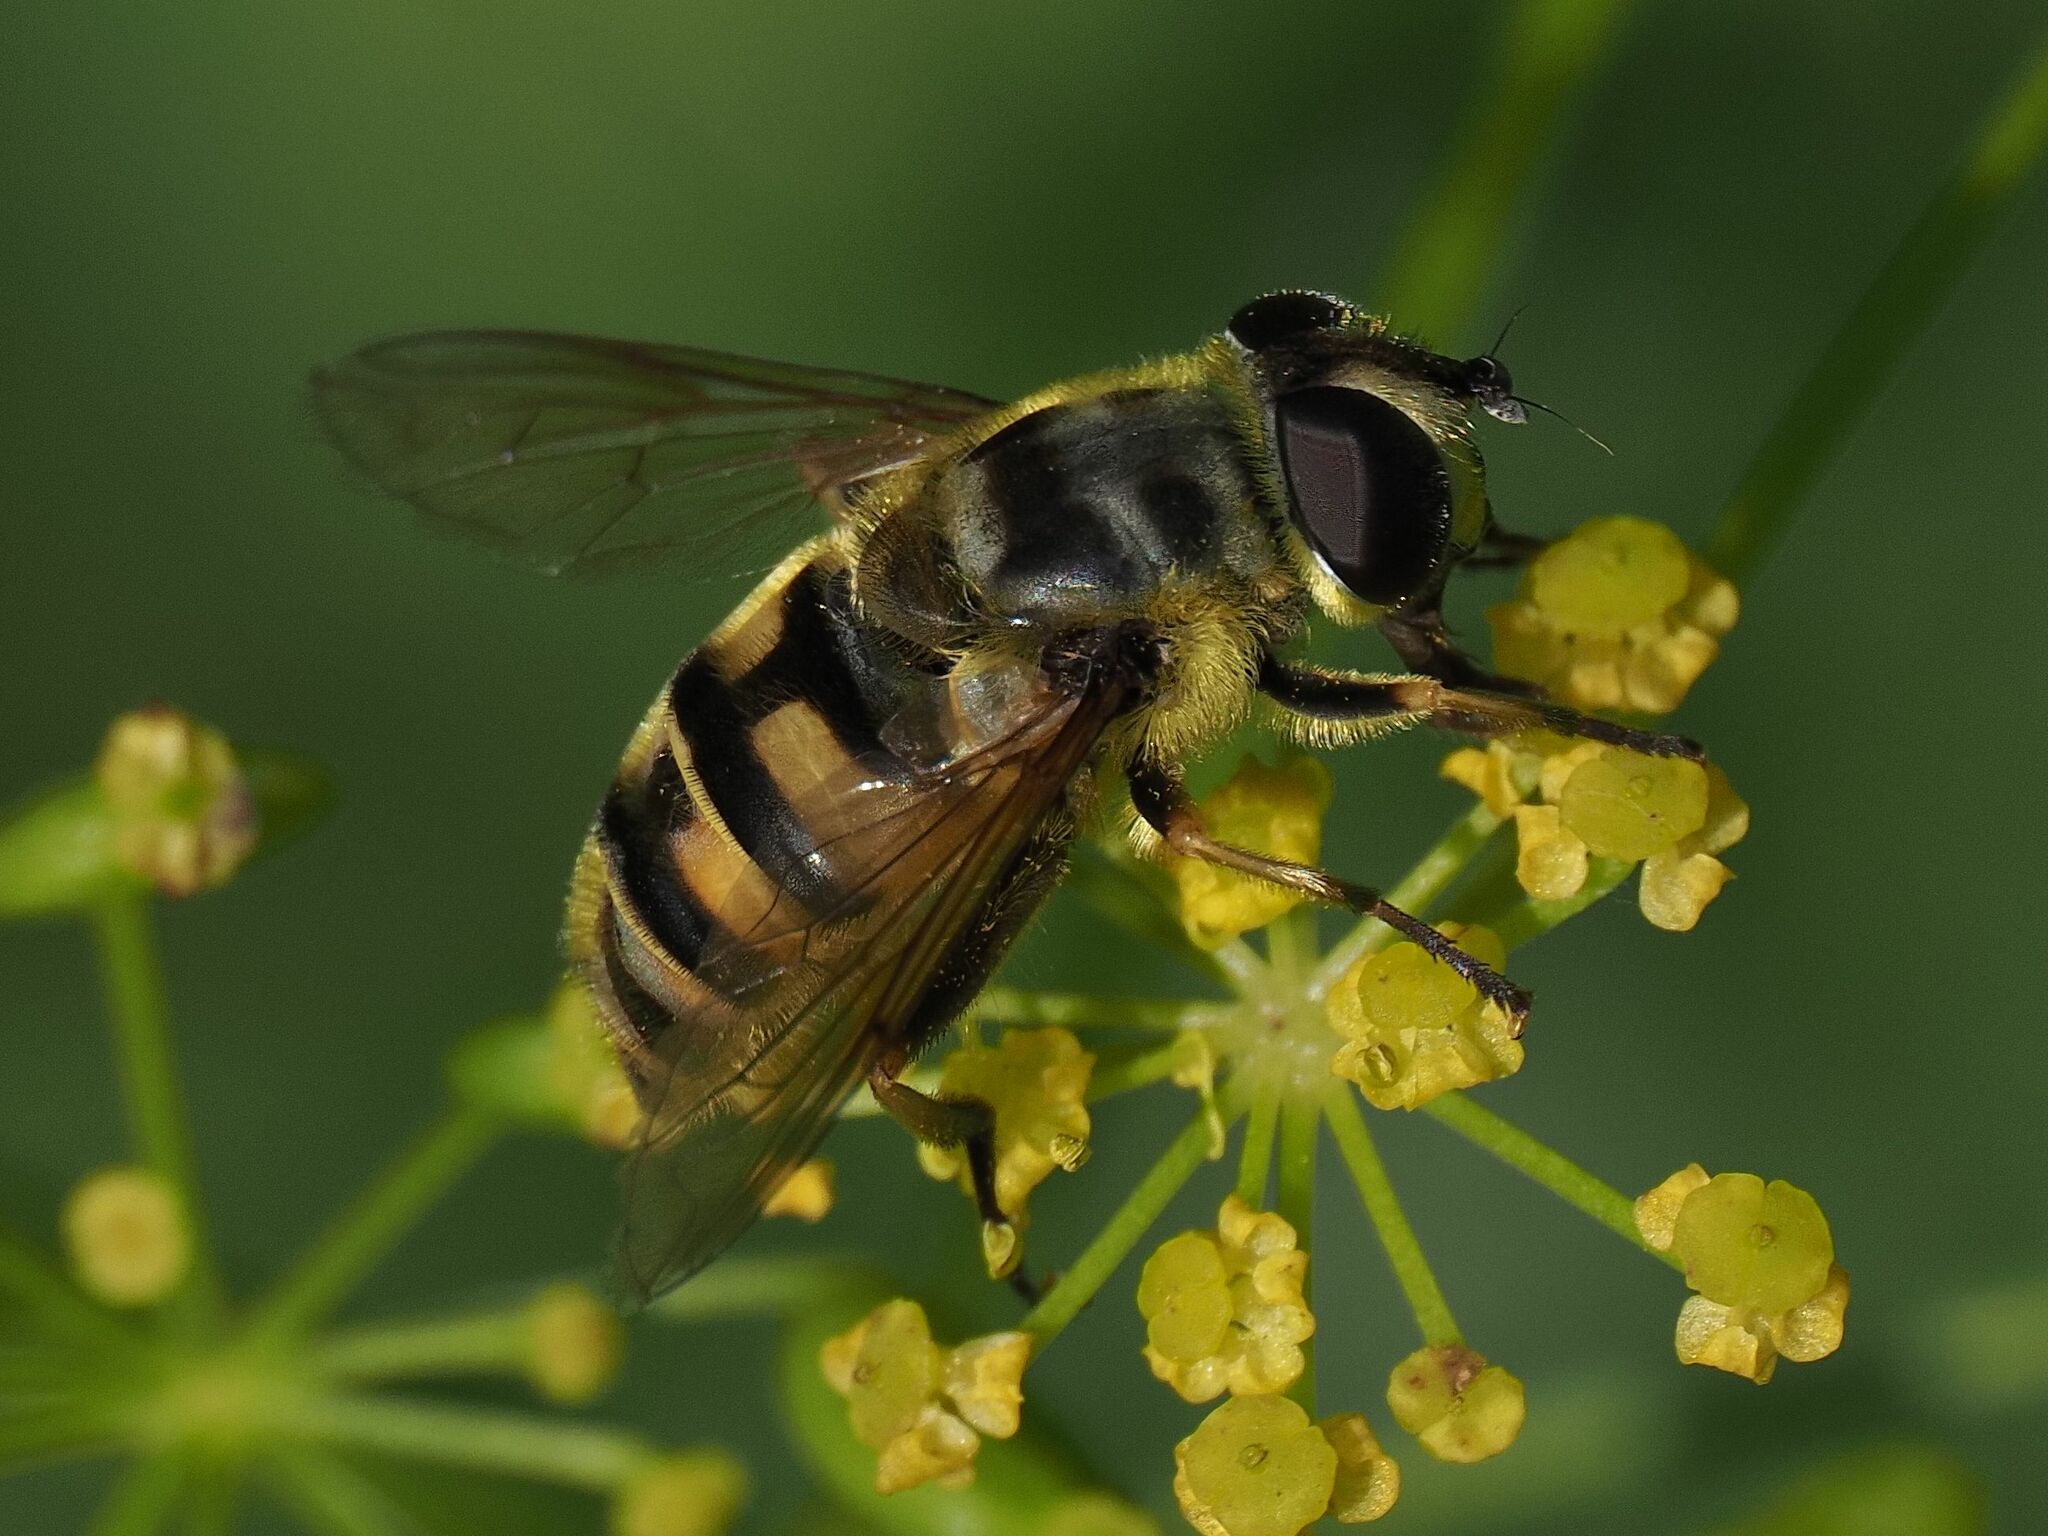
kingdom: Animalia
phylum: Arthropoda
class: Insecta
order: Diptera
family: Syrphidae
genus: Myathropa
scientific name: Myathropa florea
